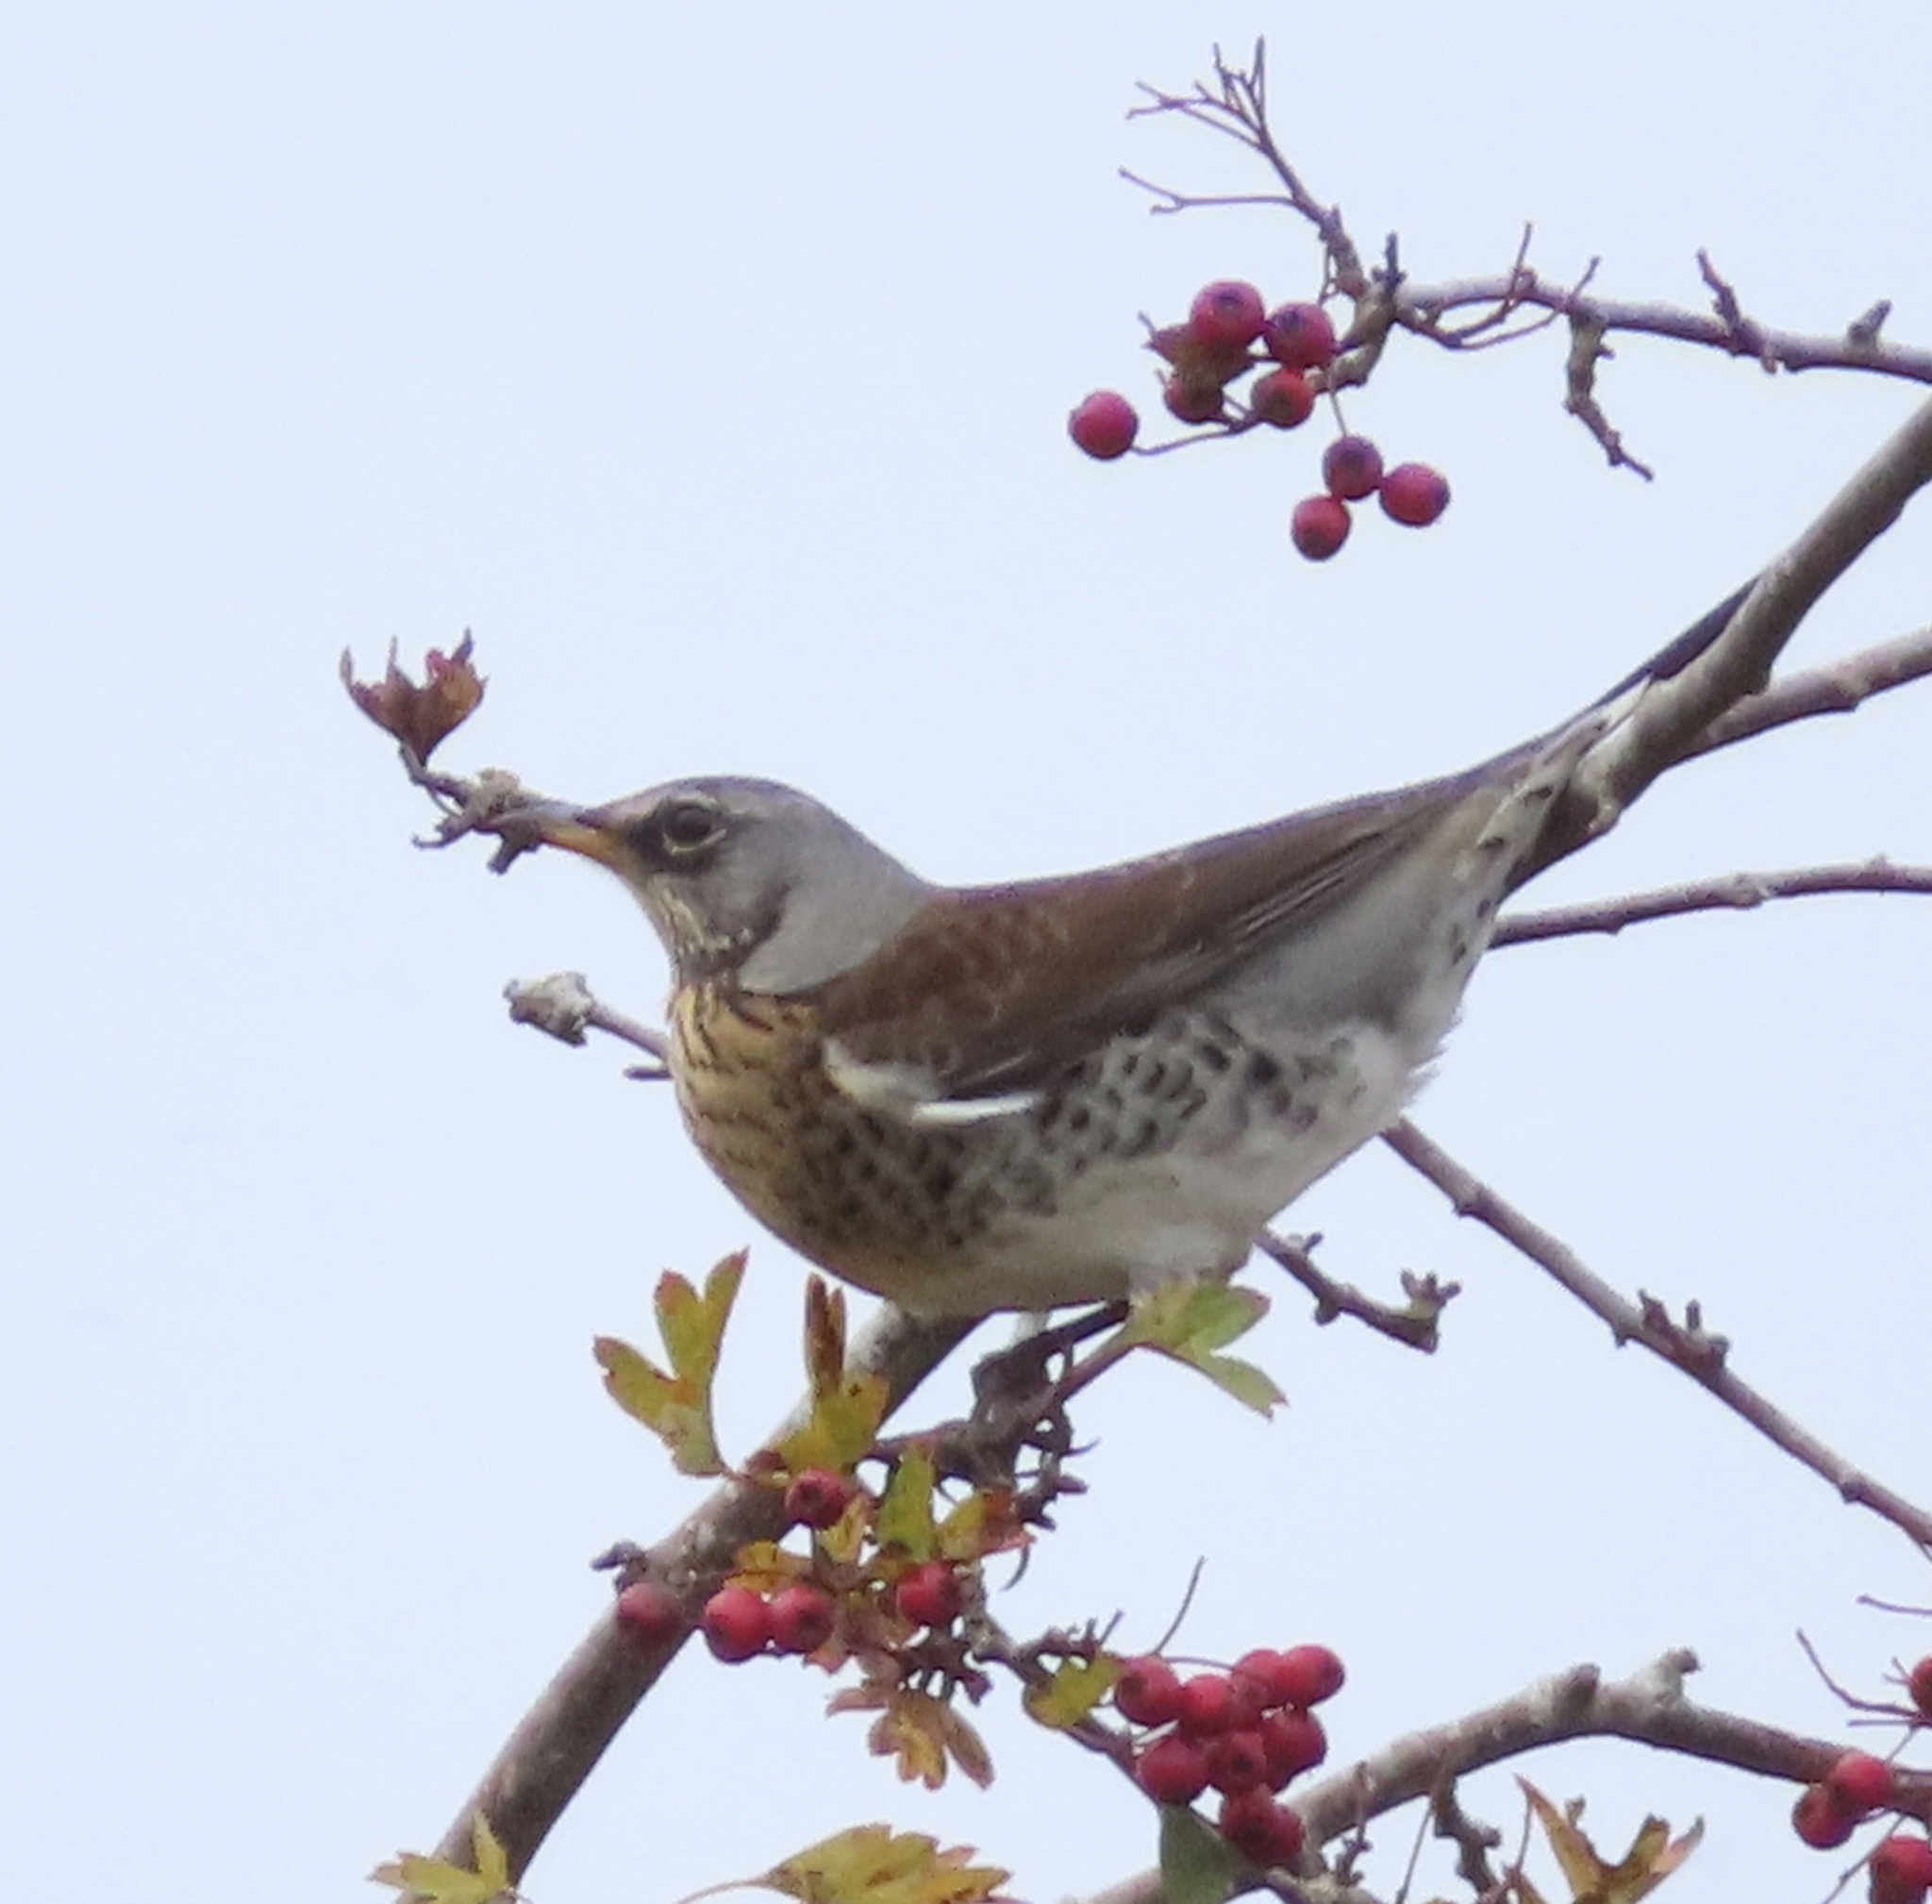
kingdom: Animalia
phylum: Chordata
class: Aves
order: Passeriformes
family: Turdidae
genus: Turdus
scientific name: Turdus pilaris
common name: Fieldfare
